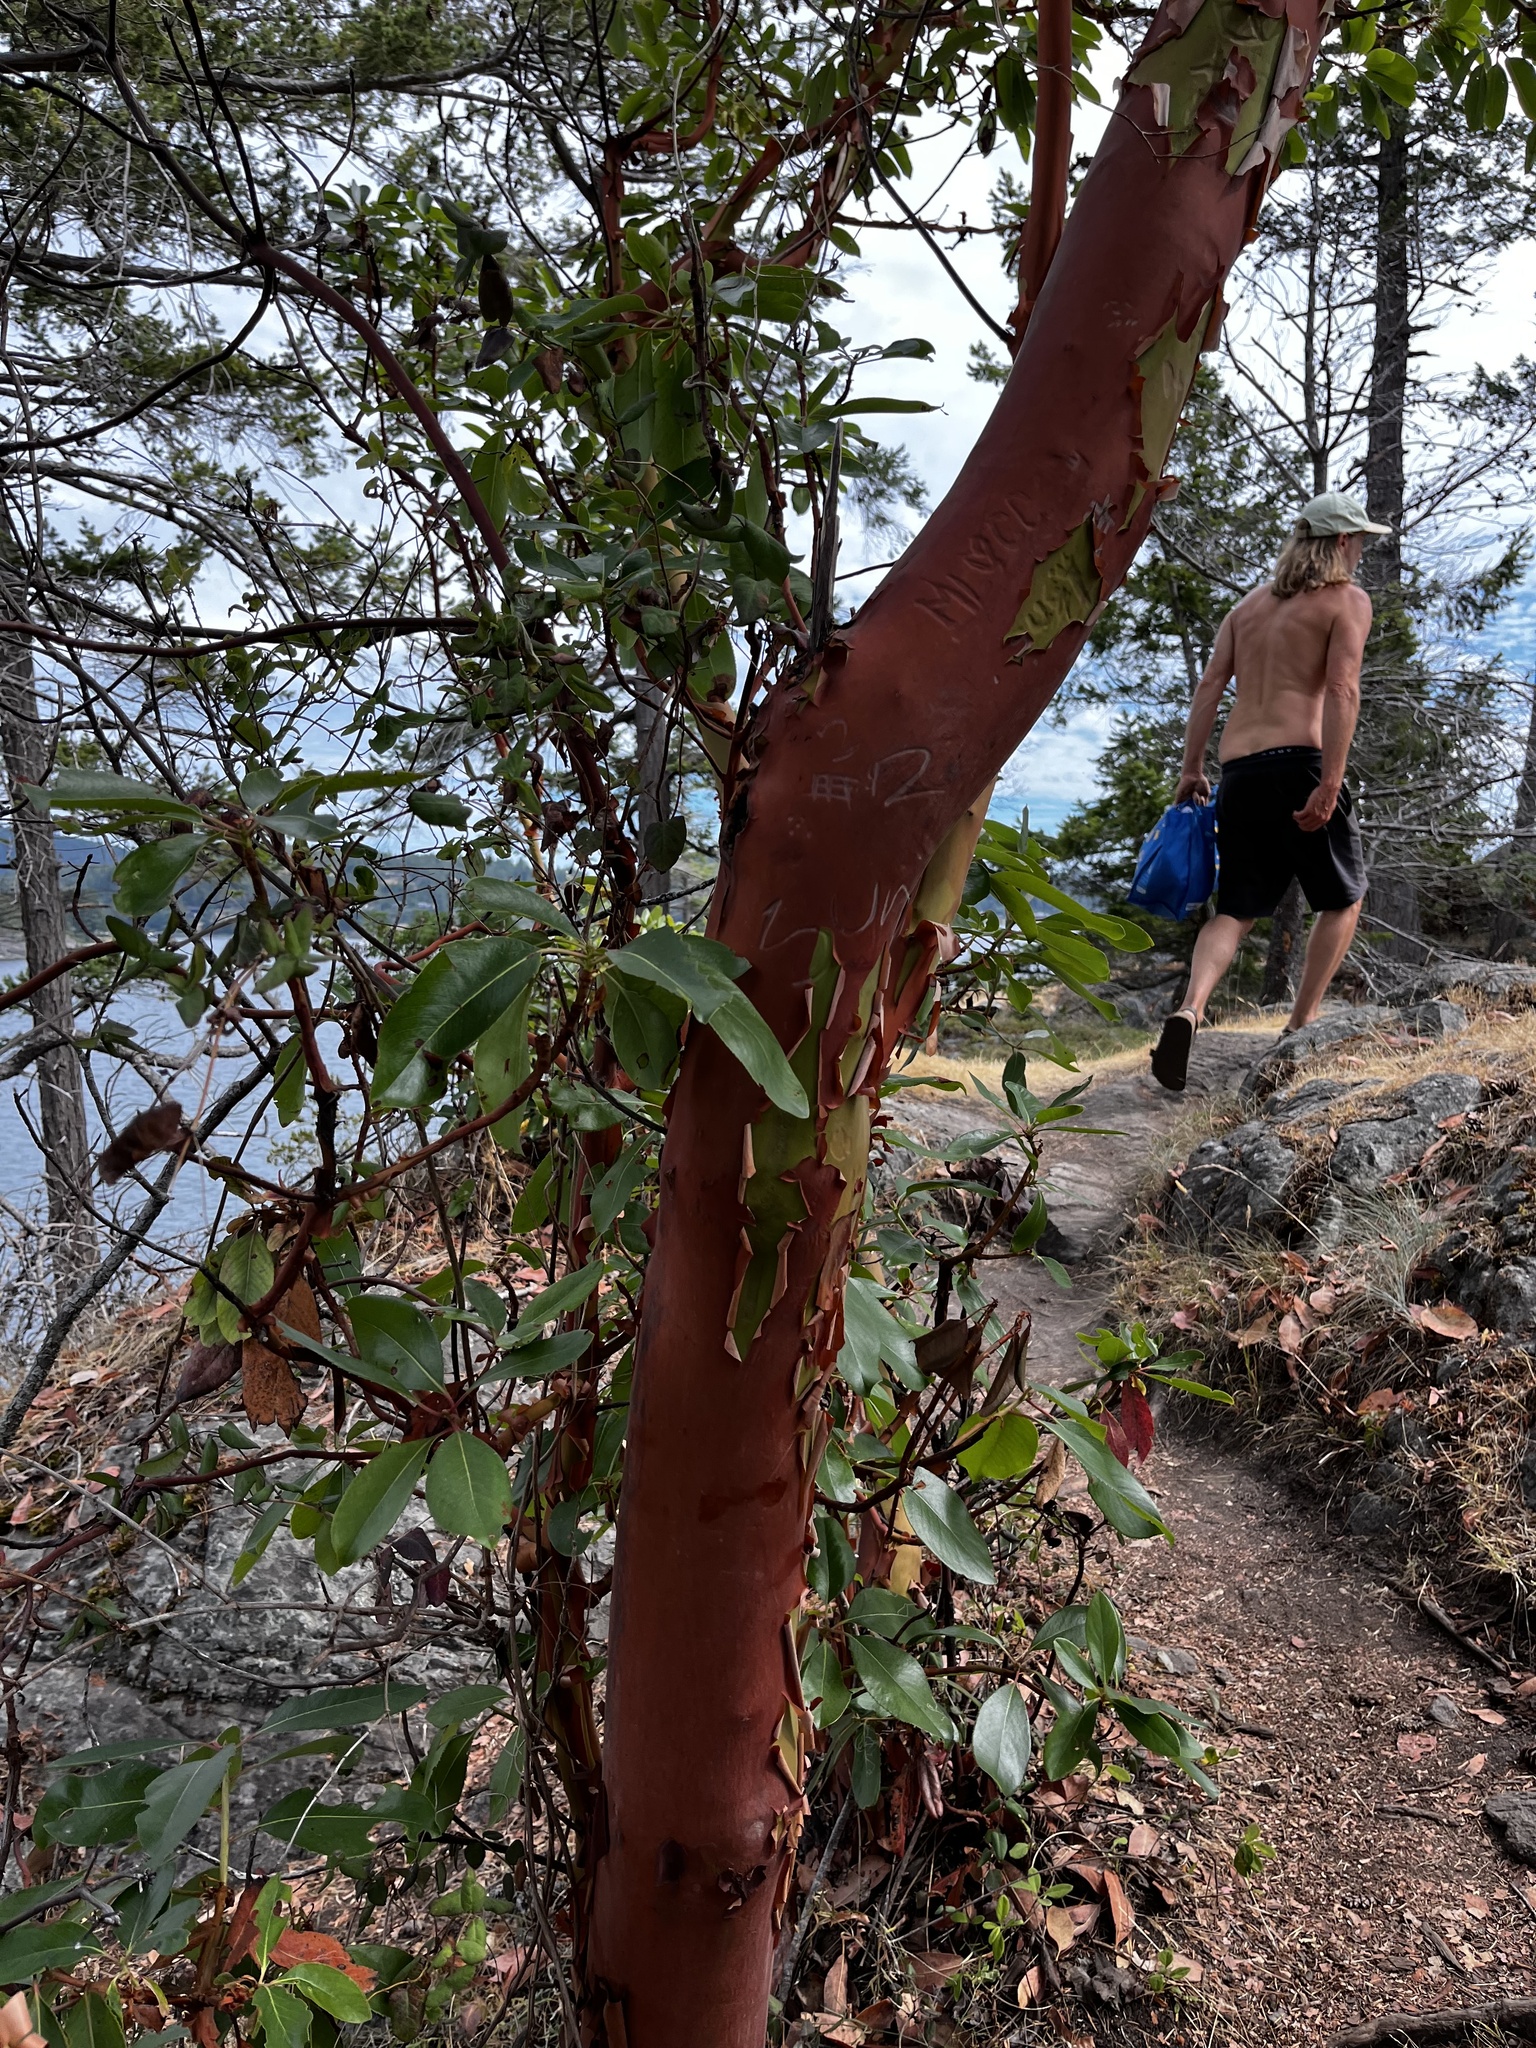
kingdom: Plantae
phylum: Tracheophyta
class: Magnoliopsida
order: Ericales
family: Ericaceae
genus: Arbutus
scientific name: Arbutus menziesii
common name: Pacific madrone
